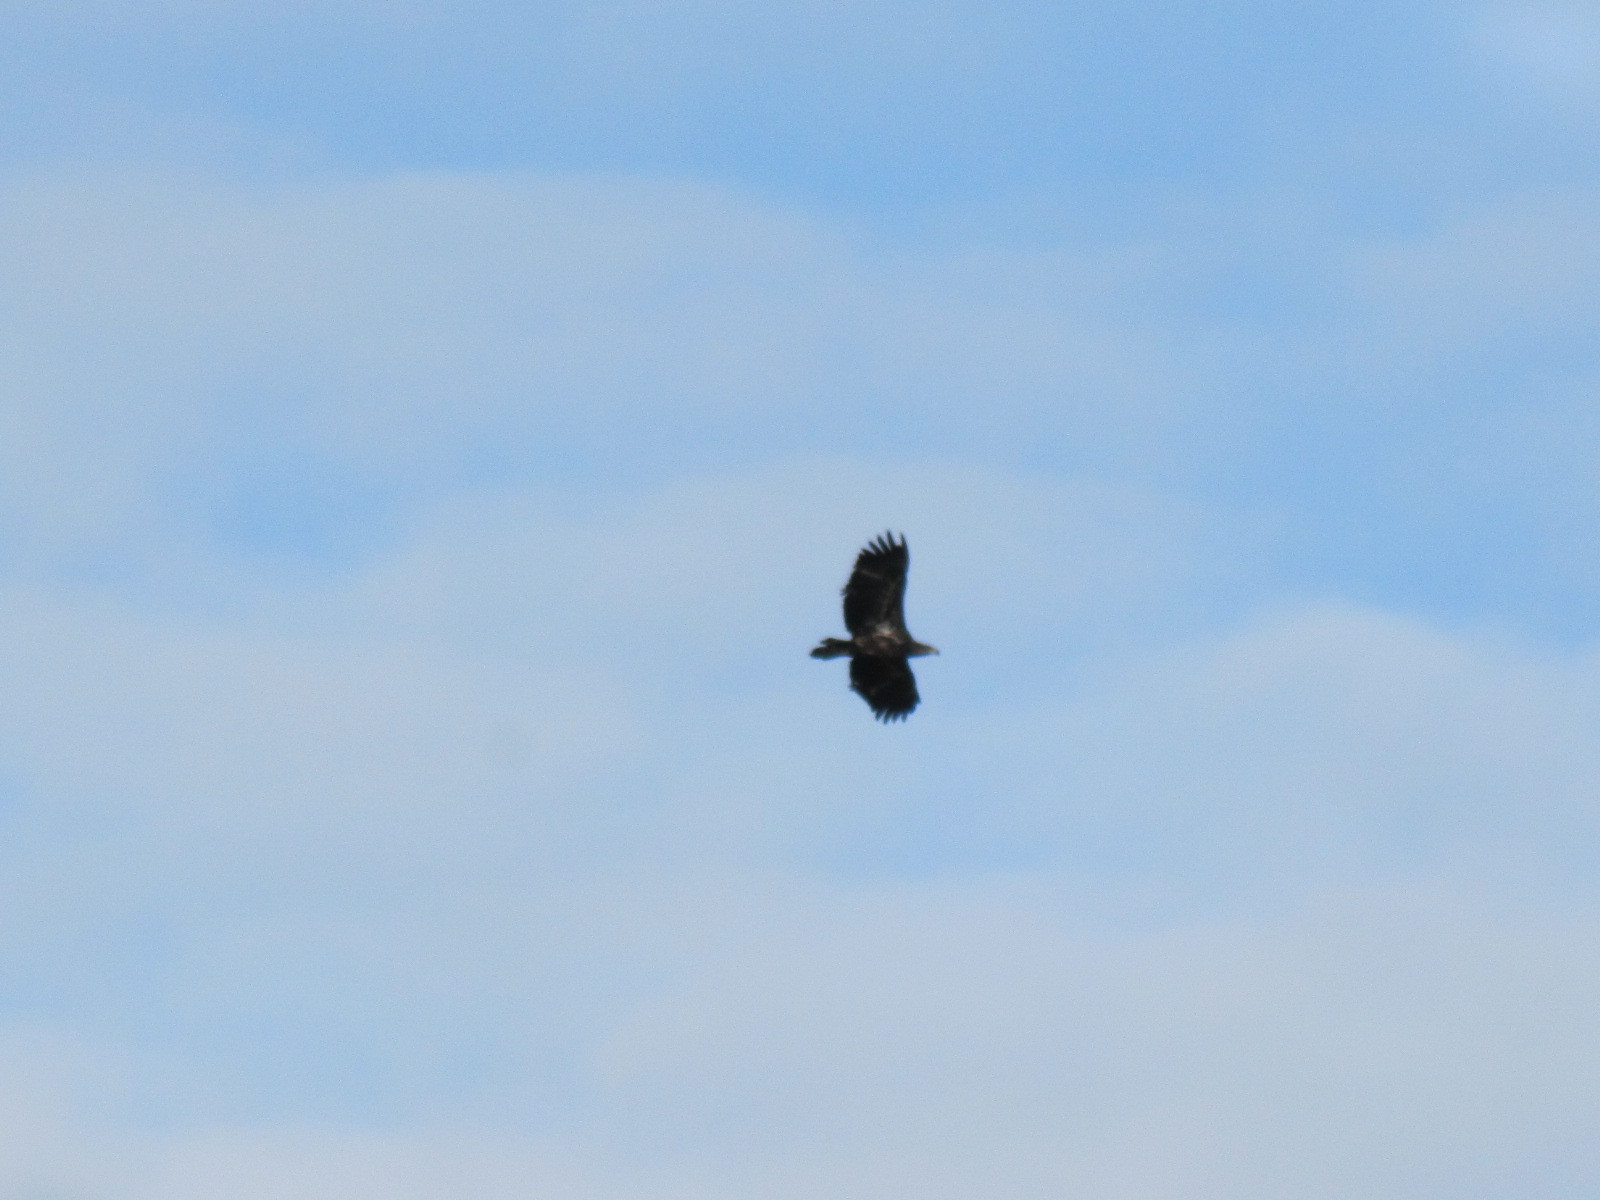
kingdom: Animalia
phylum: Chordata
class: Aves
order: Accipitriformes
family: Accipitridae
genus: Haliaeetus
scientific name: Haliaeetus leucocephalus
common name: Bald eagle
